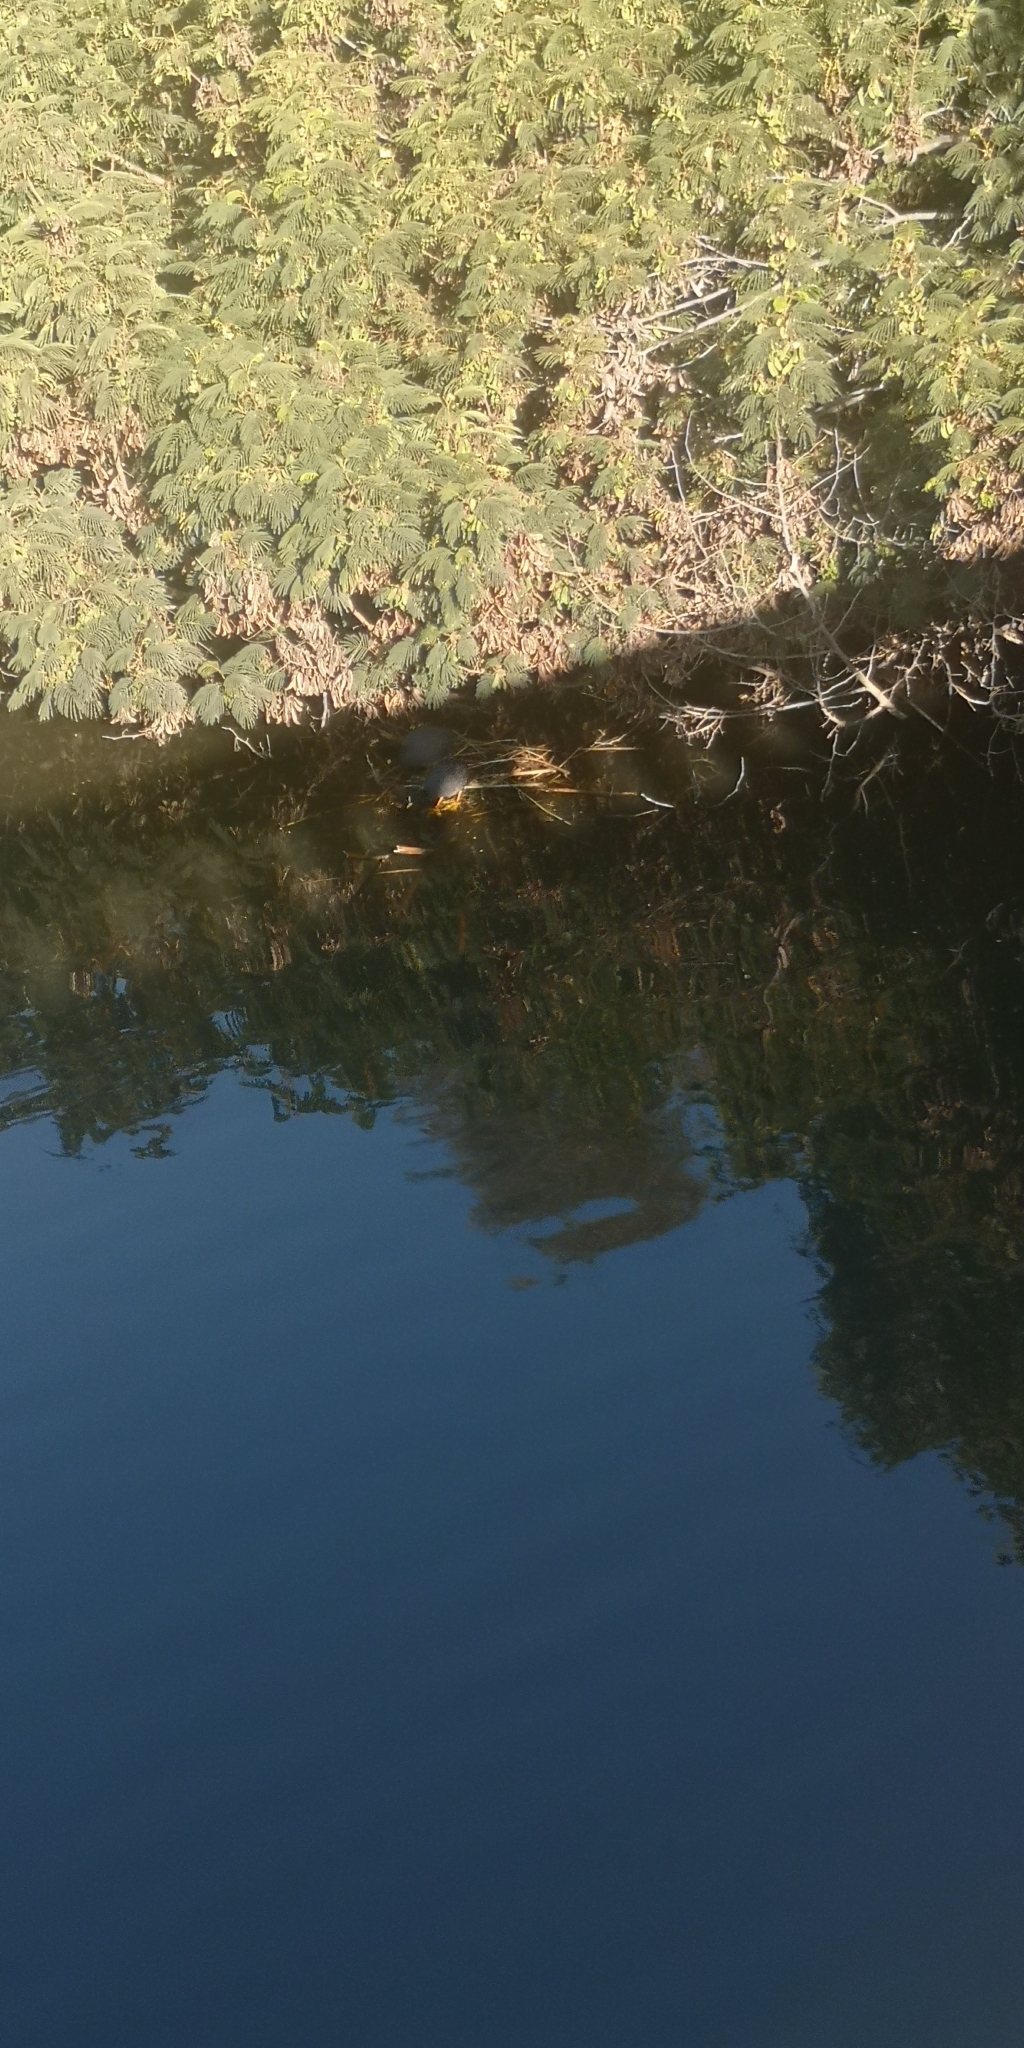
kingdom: Animalia
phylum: Chordata
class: Aves
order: Gruiformes
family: Rallidae
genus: Fulica
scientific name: Fulica armillata
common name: Red-gartered coot
